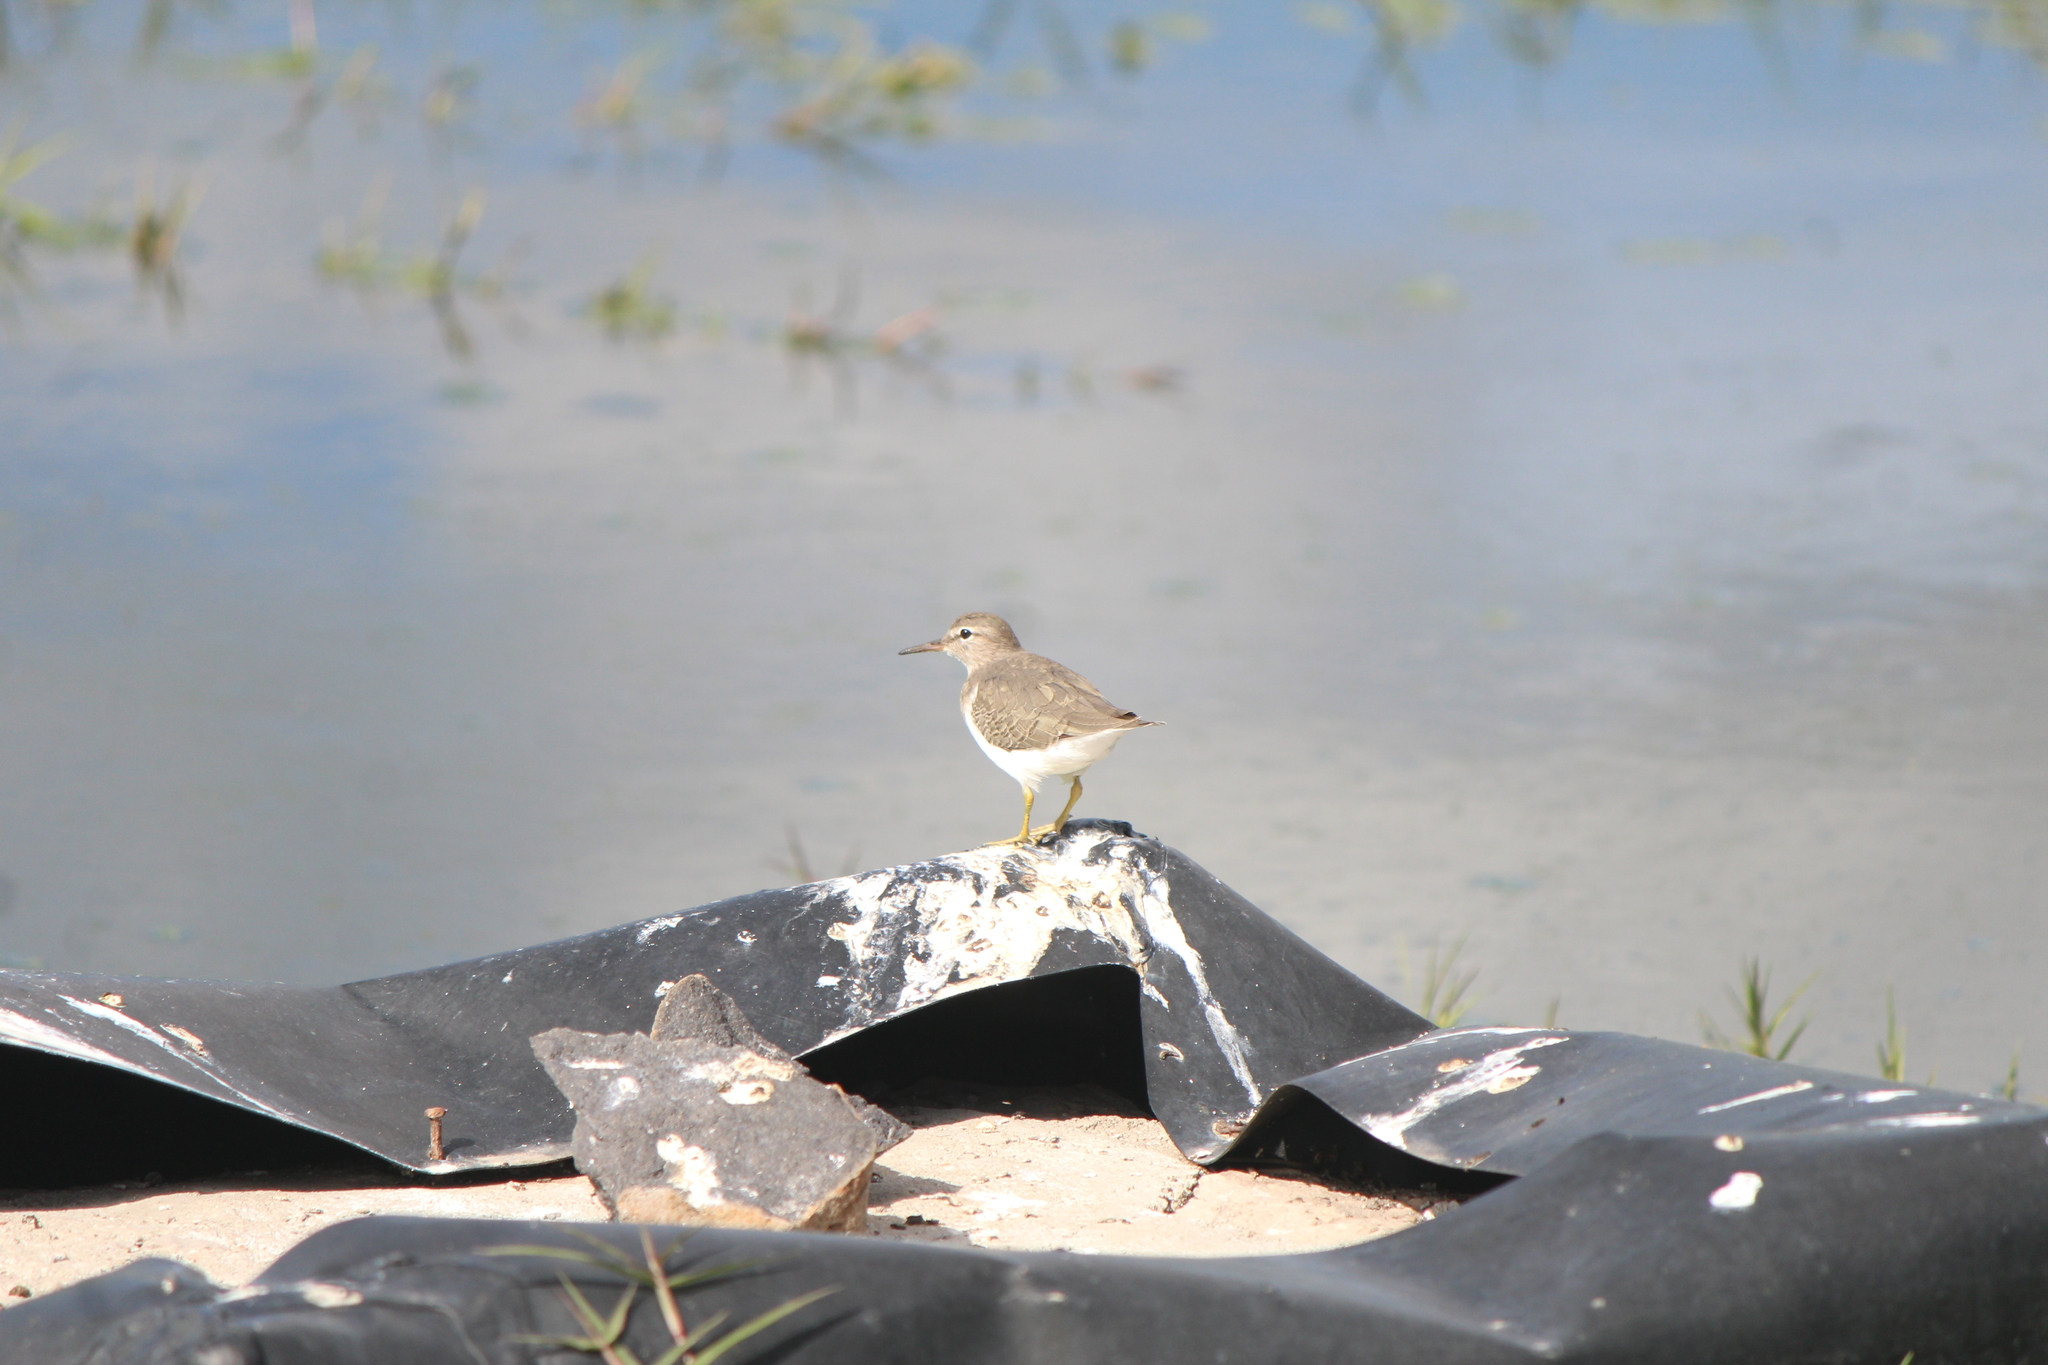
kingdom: Animalia
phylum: Chordata
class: Aves
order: Charadriiformes
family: Scolopacidae
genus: Actitis
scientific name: Actitis macularius
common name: Spotted sandpiper
